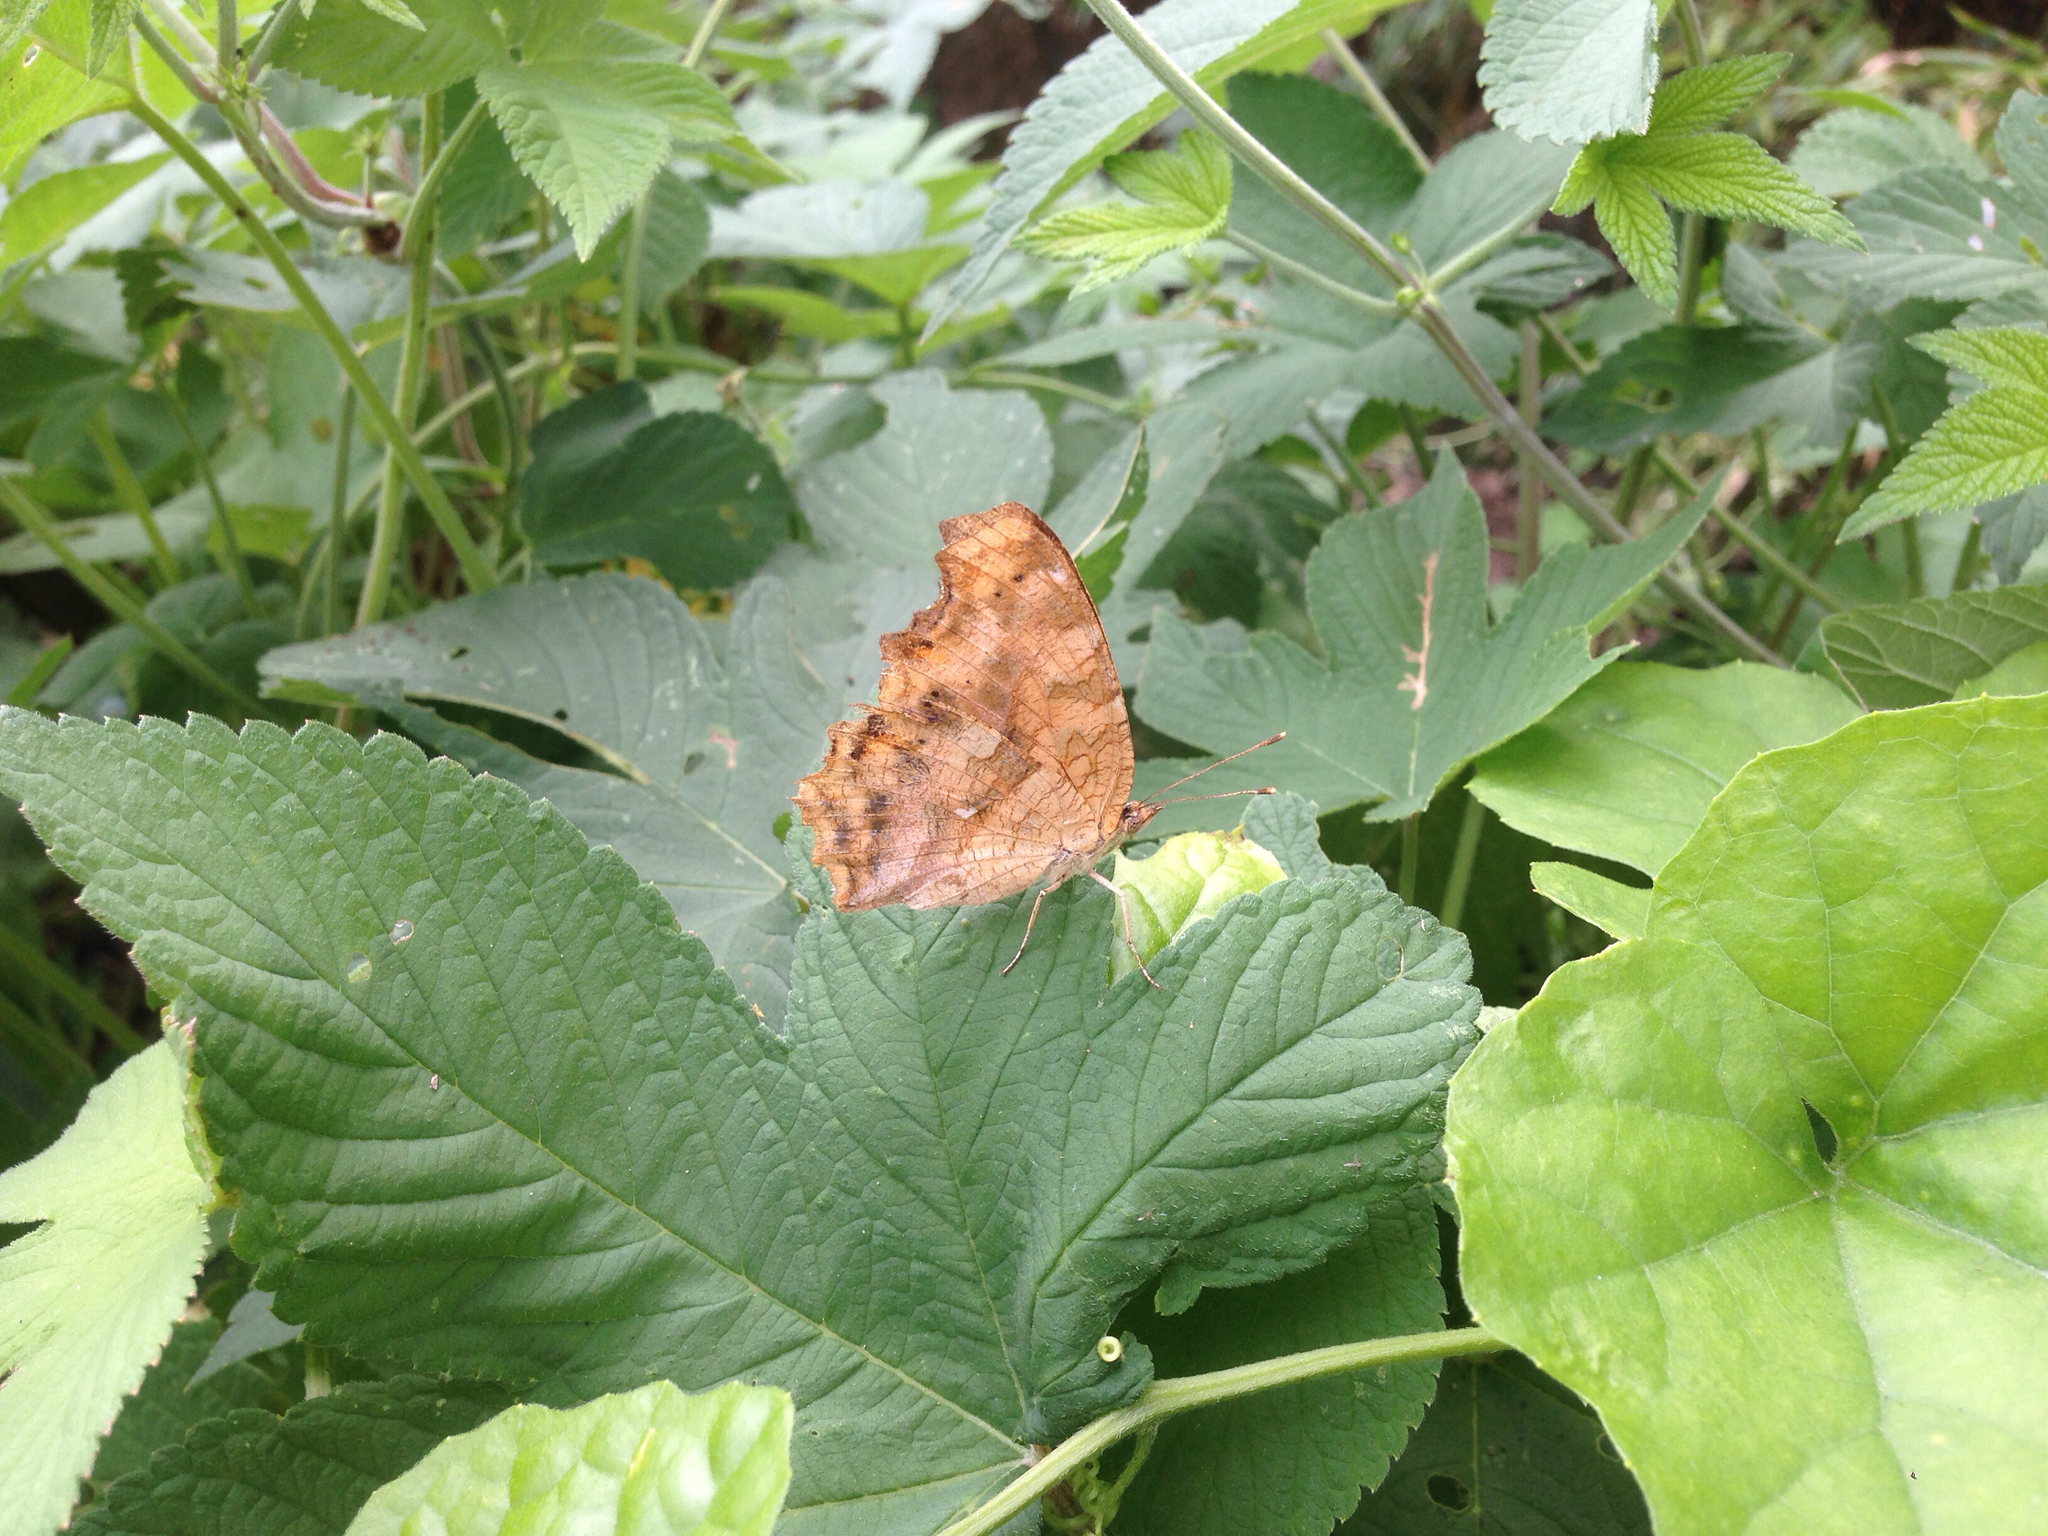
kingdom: Animalia
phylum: Arthropoda
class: Insecta
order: Lepidoptera
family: Nymphalidae
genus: Polygonia
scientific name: Polygonia c-aureum
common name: Asian comma
